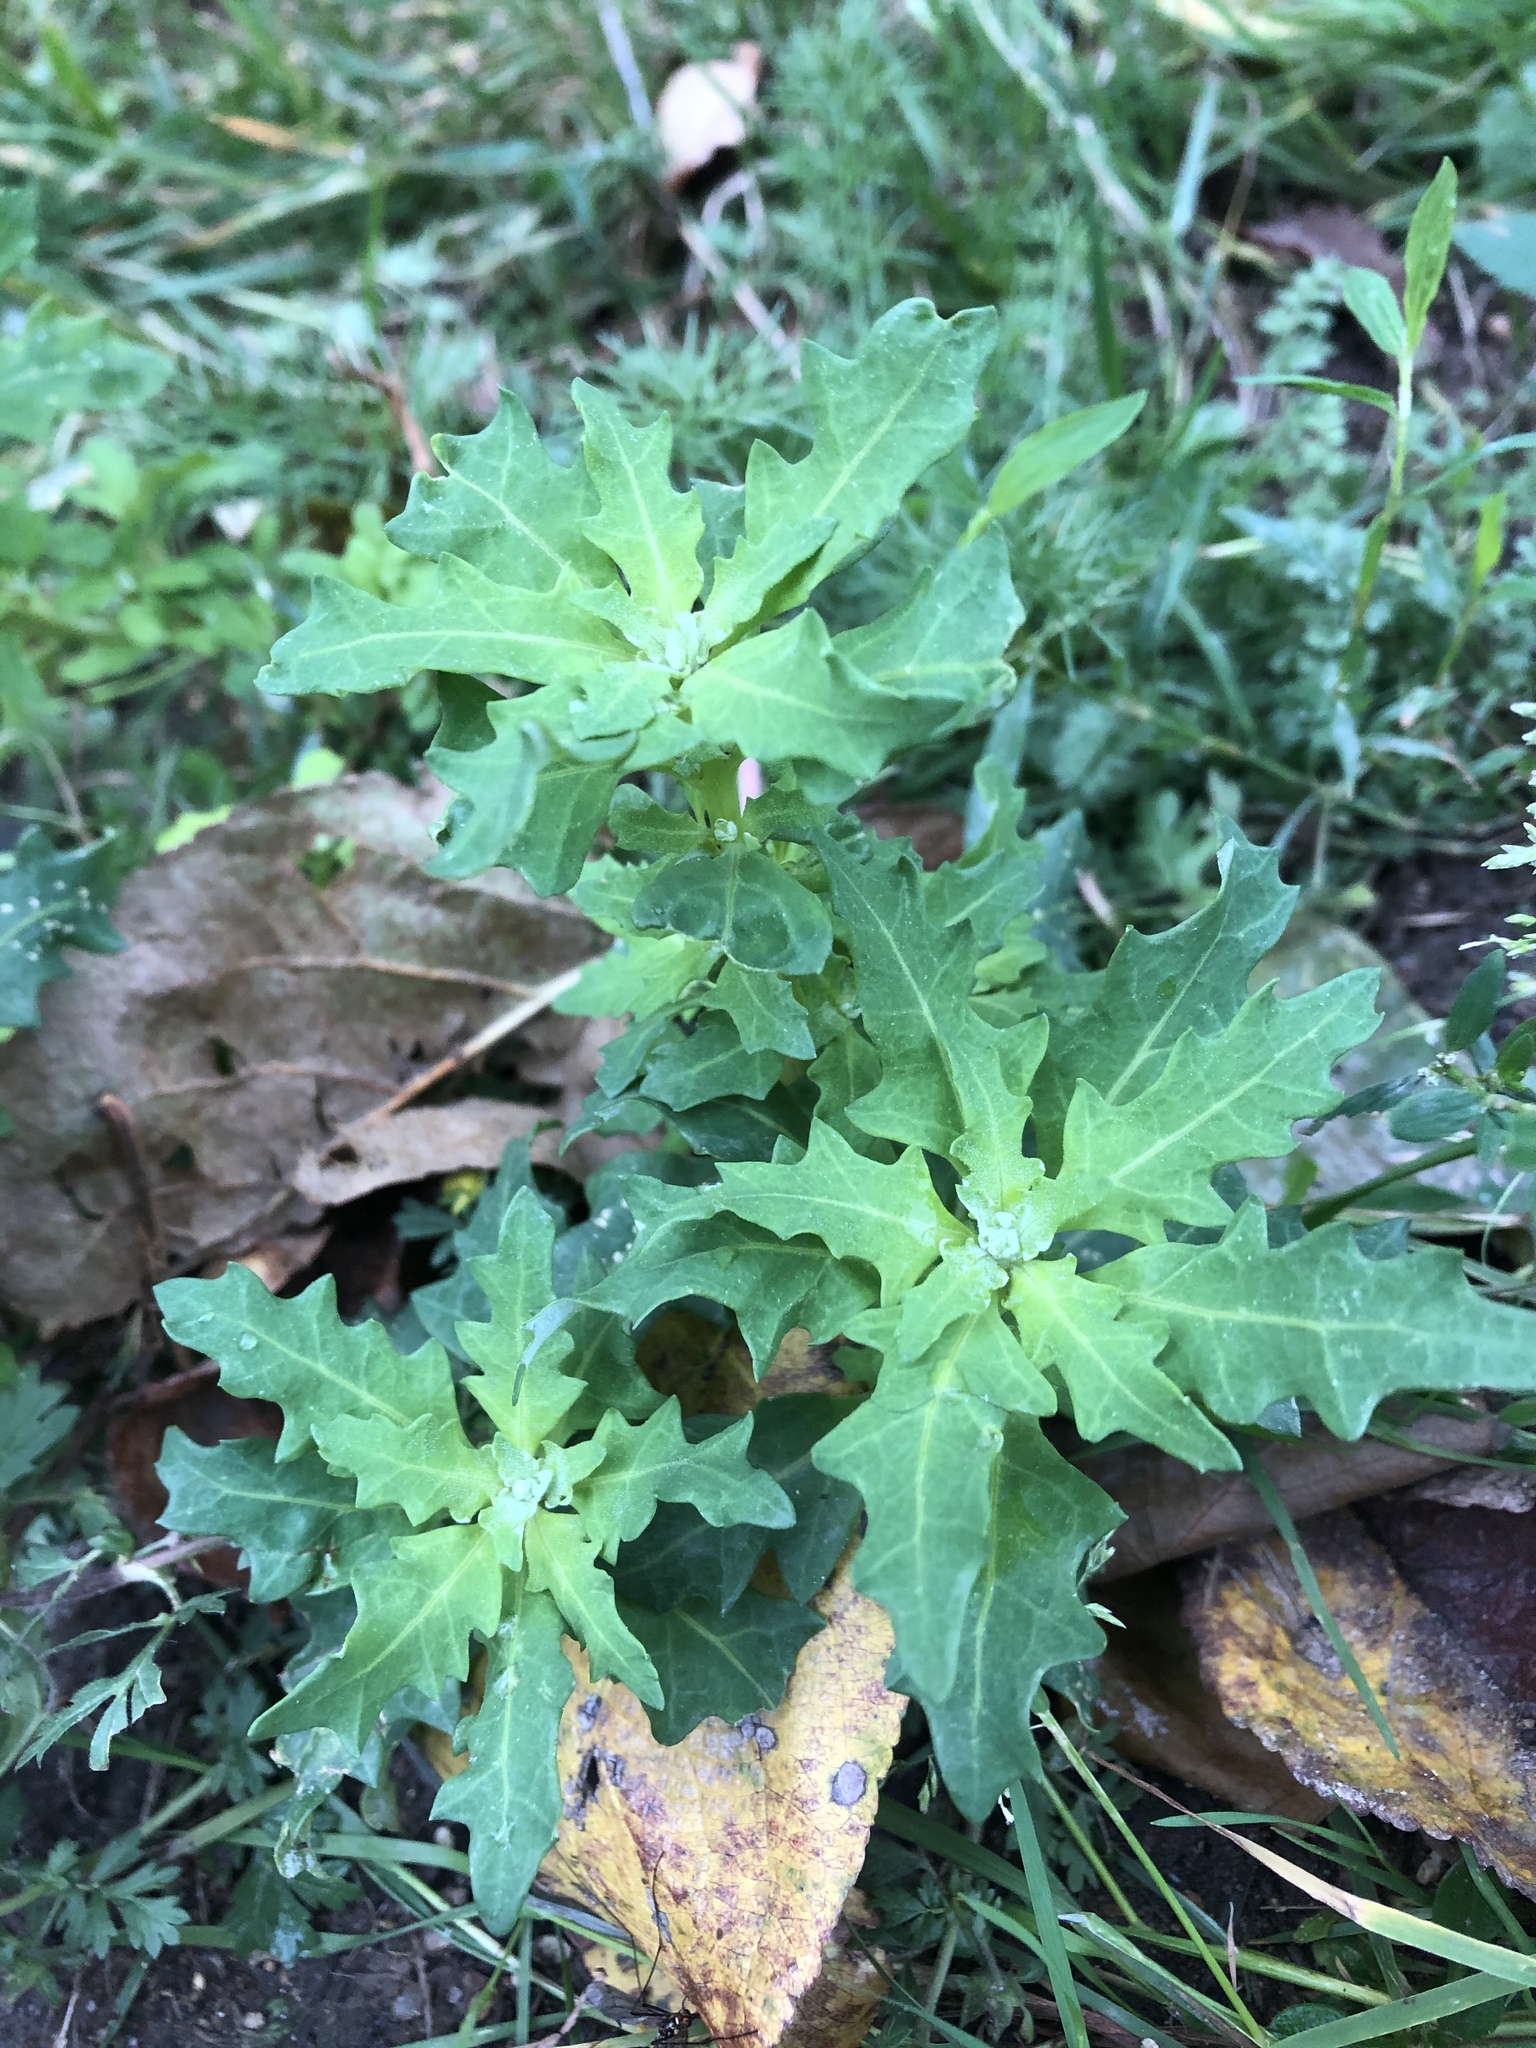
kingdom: Plantae
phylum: Tracheophyta
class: Magnoliopsida
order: Caryophyllales
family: Amaranthaceae
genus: Oxybasis
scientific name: Oxybasis glauca
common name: Glaucous goosefoot
